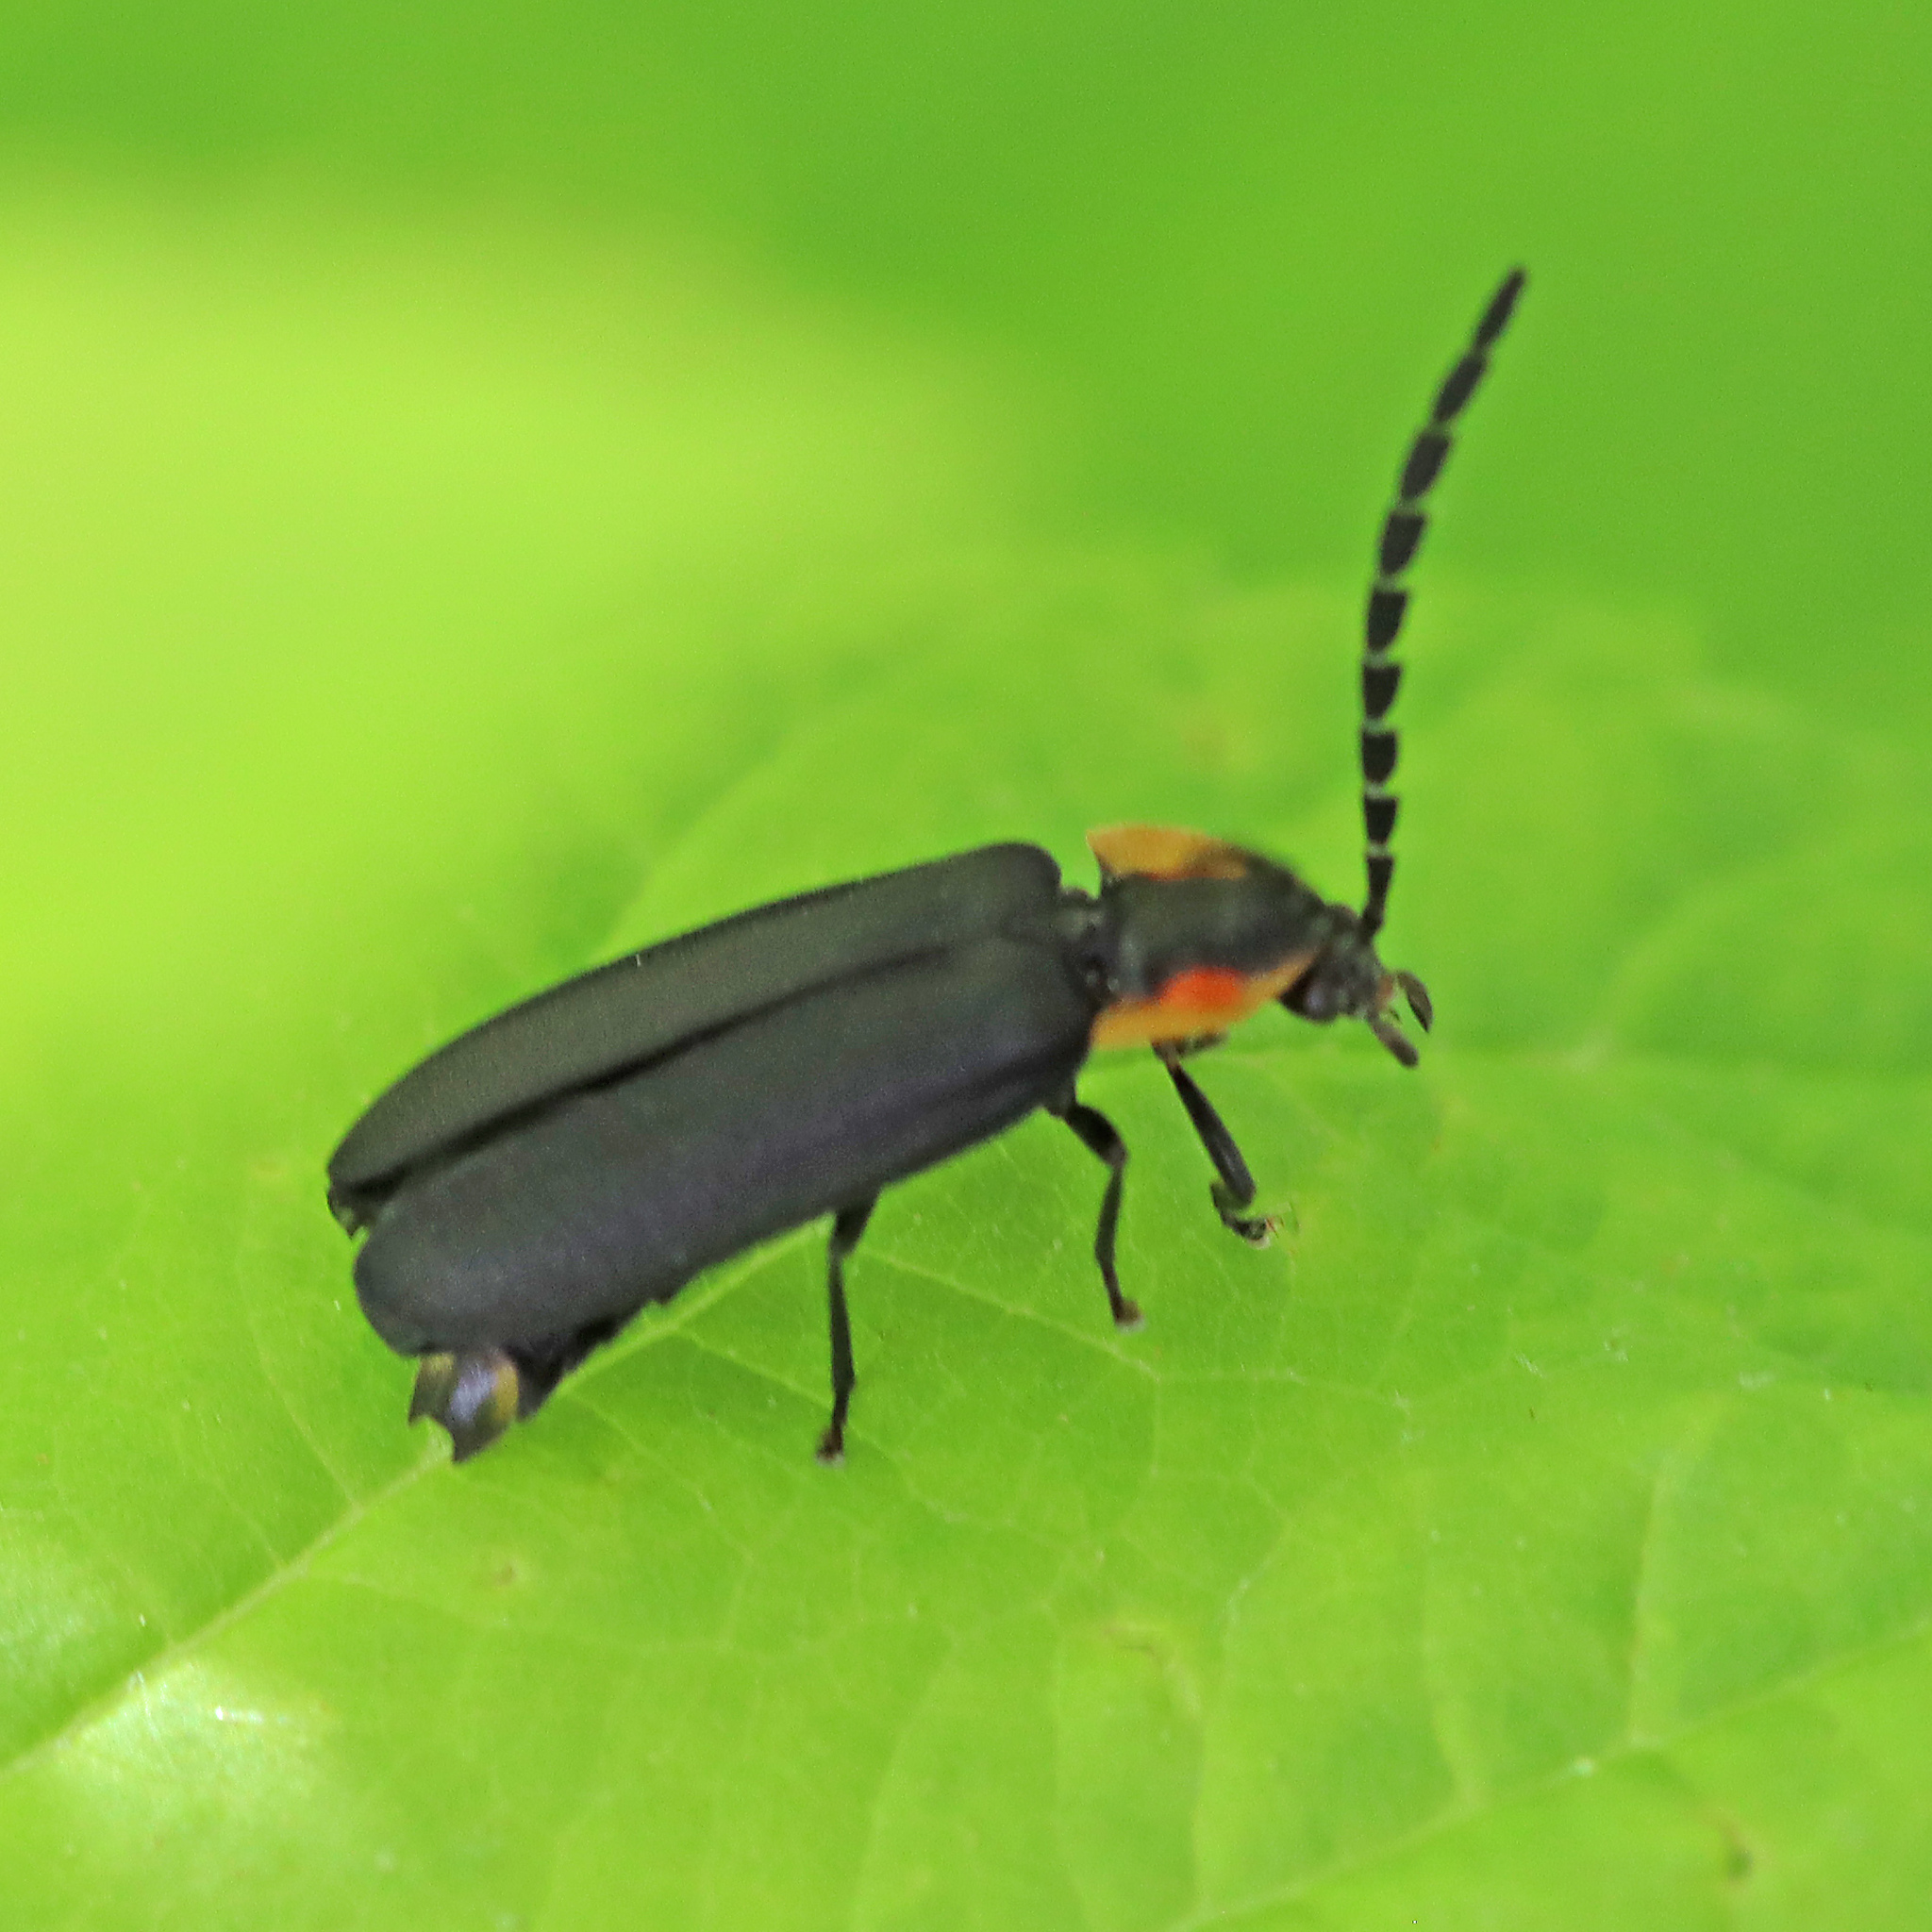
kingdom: Animalia
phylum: Arthropoda
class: Insecta
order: Coleoptera
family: Lampyridae
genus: Lucidota
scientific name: Lucidota atra
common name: Black firefly
